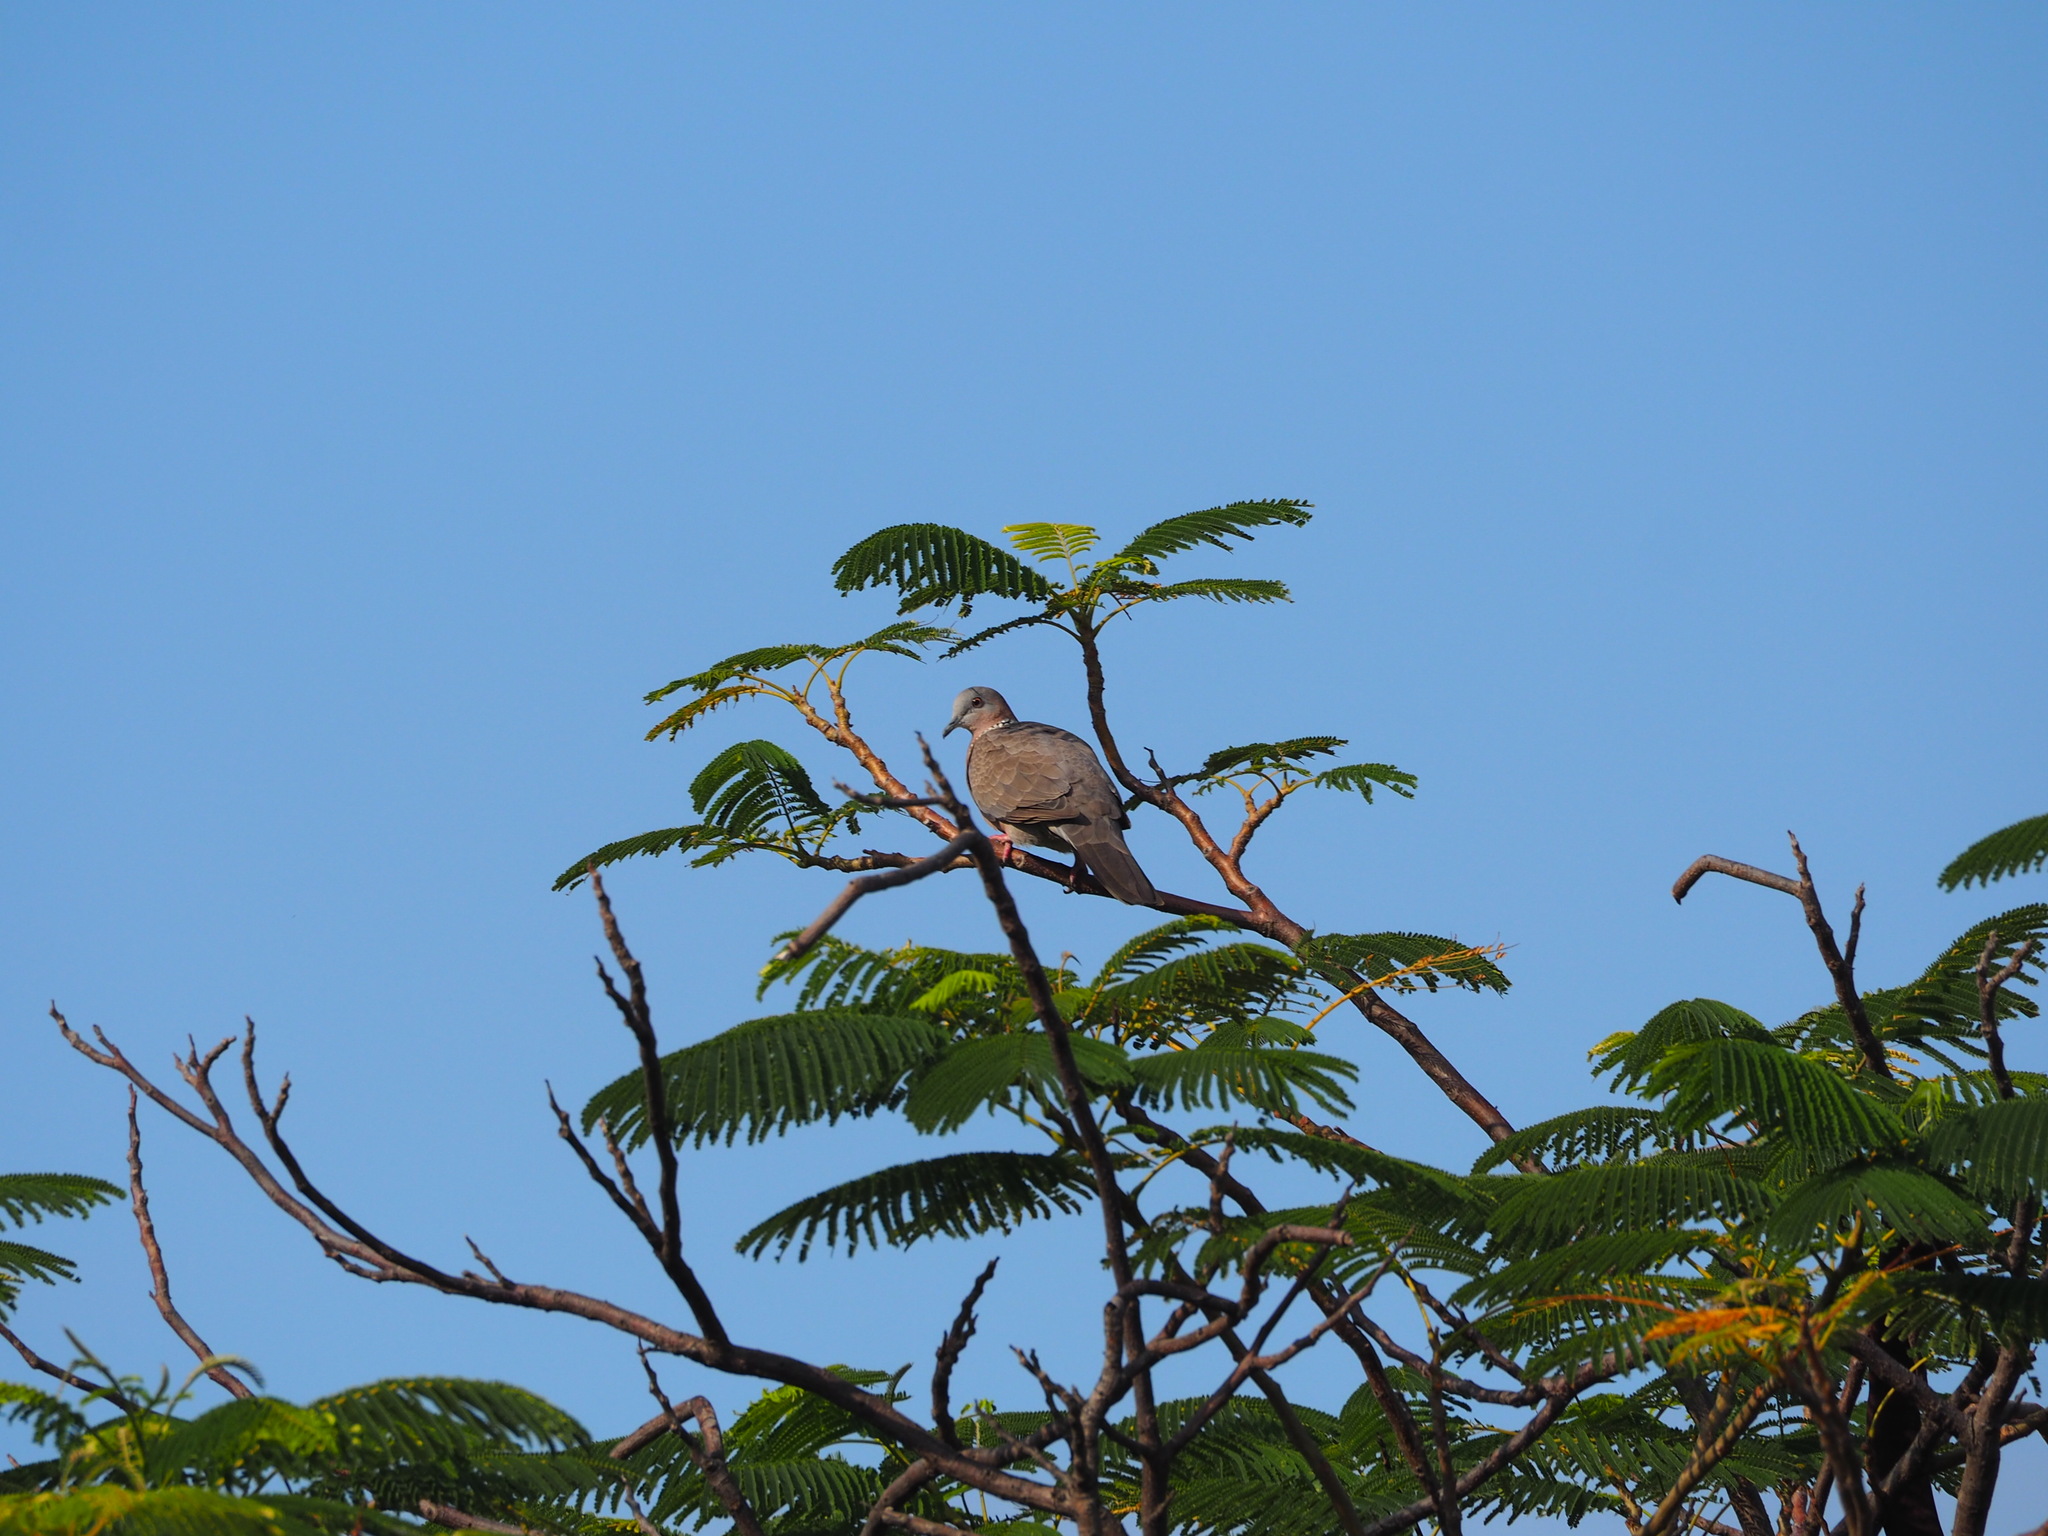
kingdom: Animalia
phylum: Chordata
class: Aves
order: Columbiformes
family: Columbidae
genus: Spilopelia
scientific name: Spilopelia chinensis
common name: Spotted dove
